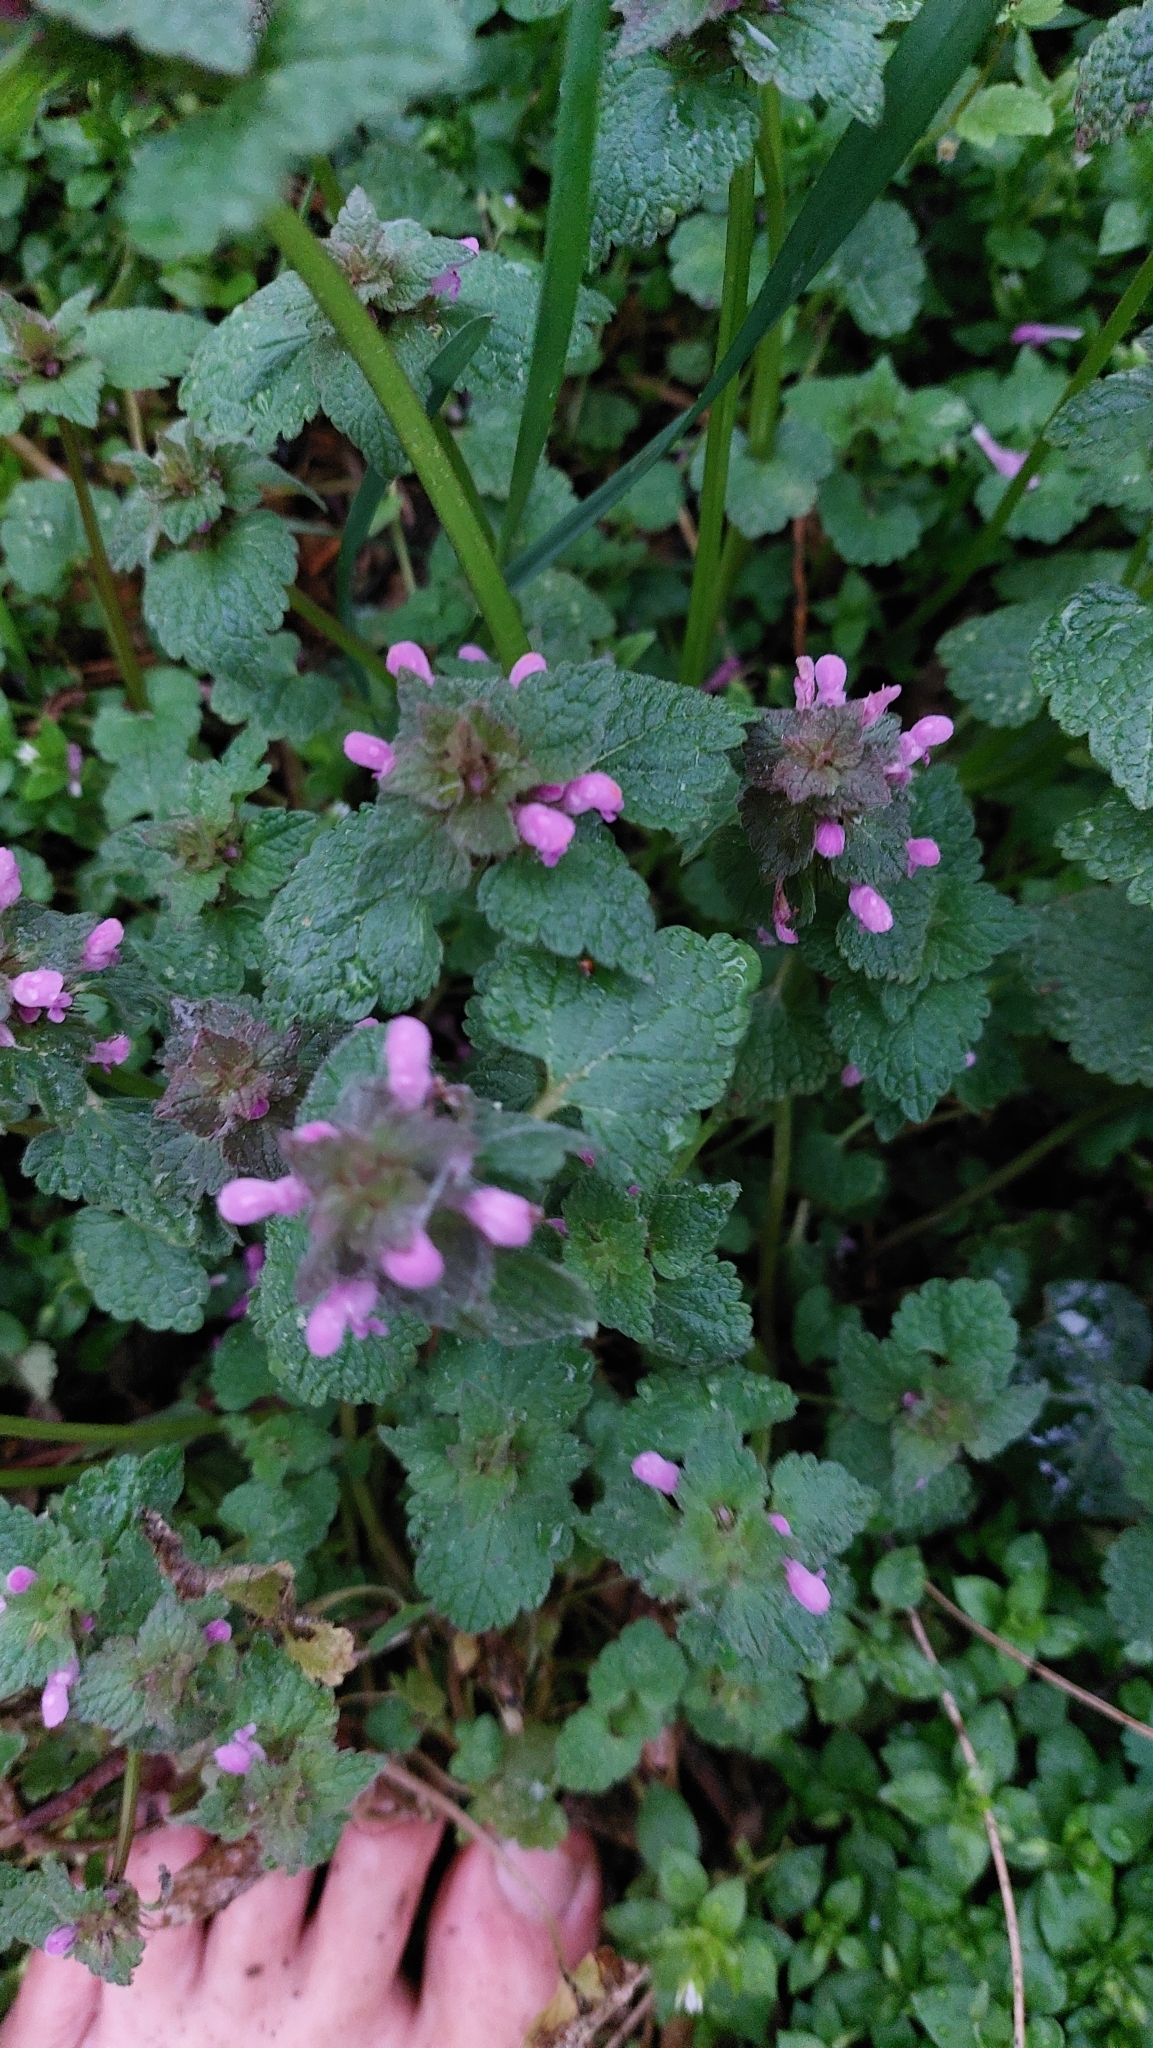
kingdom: Plantae
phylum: Tracheophyta
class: Magnoliopsida
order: Lamiales
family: Lamiaceae
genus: Lamium
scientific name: Lamium purpureum
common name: Red dead-nettle
